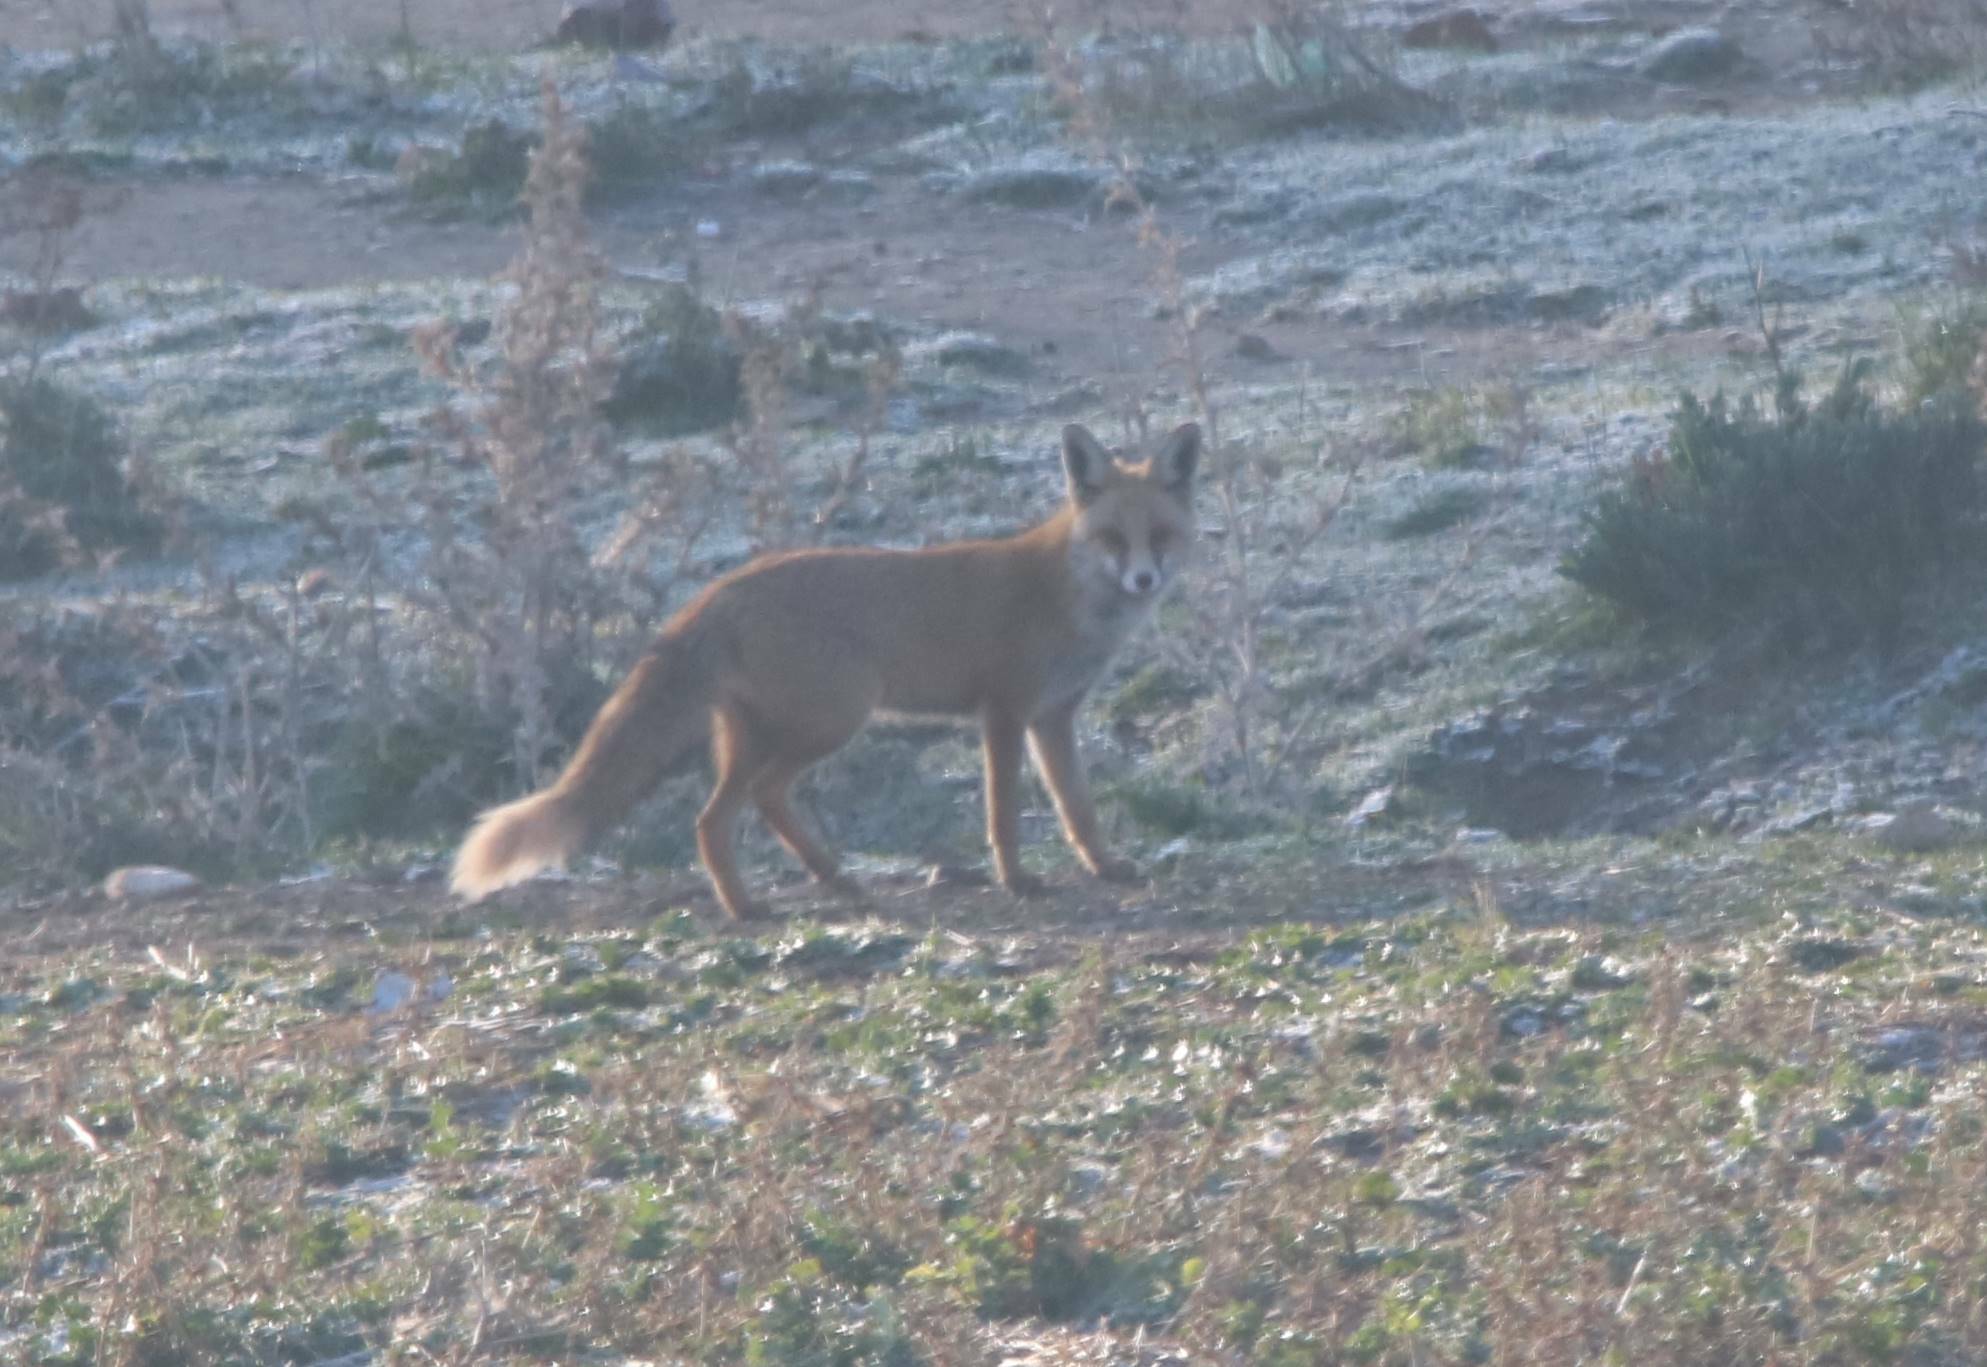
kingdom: Animalia
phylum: Chordata
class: Mammalia
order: Carnivora
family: Canidae
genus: Vulpes
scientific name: Vulpes vulpes
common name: Red fox
